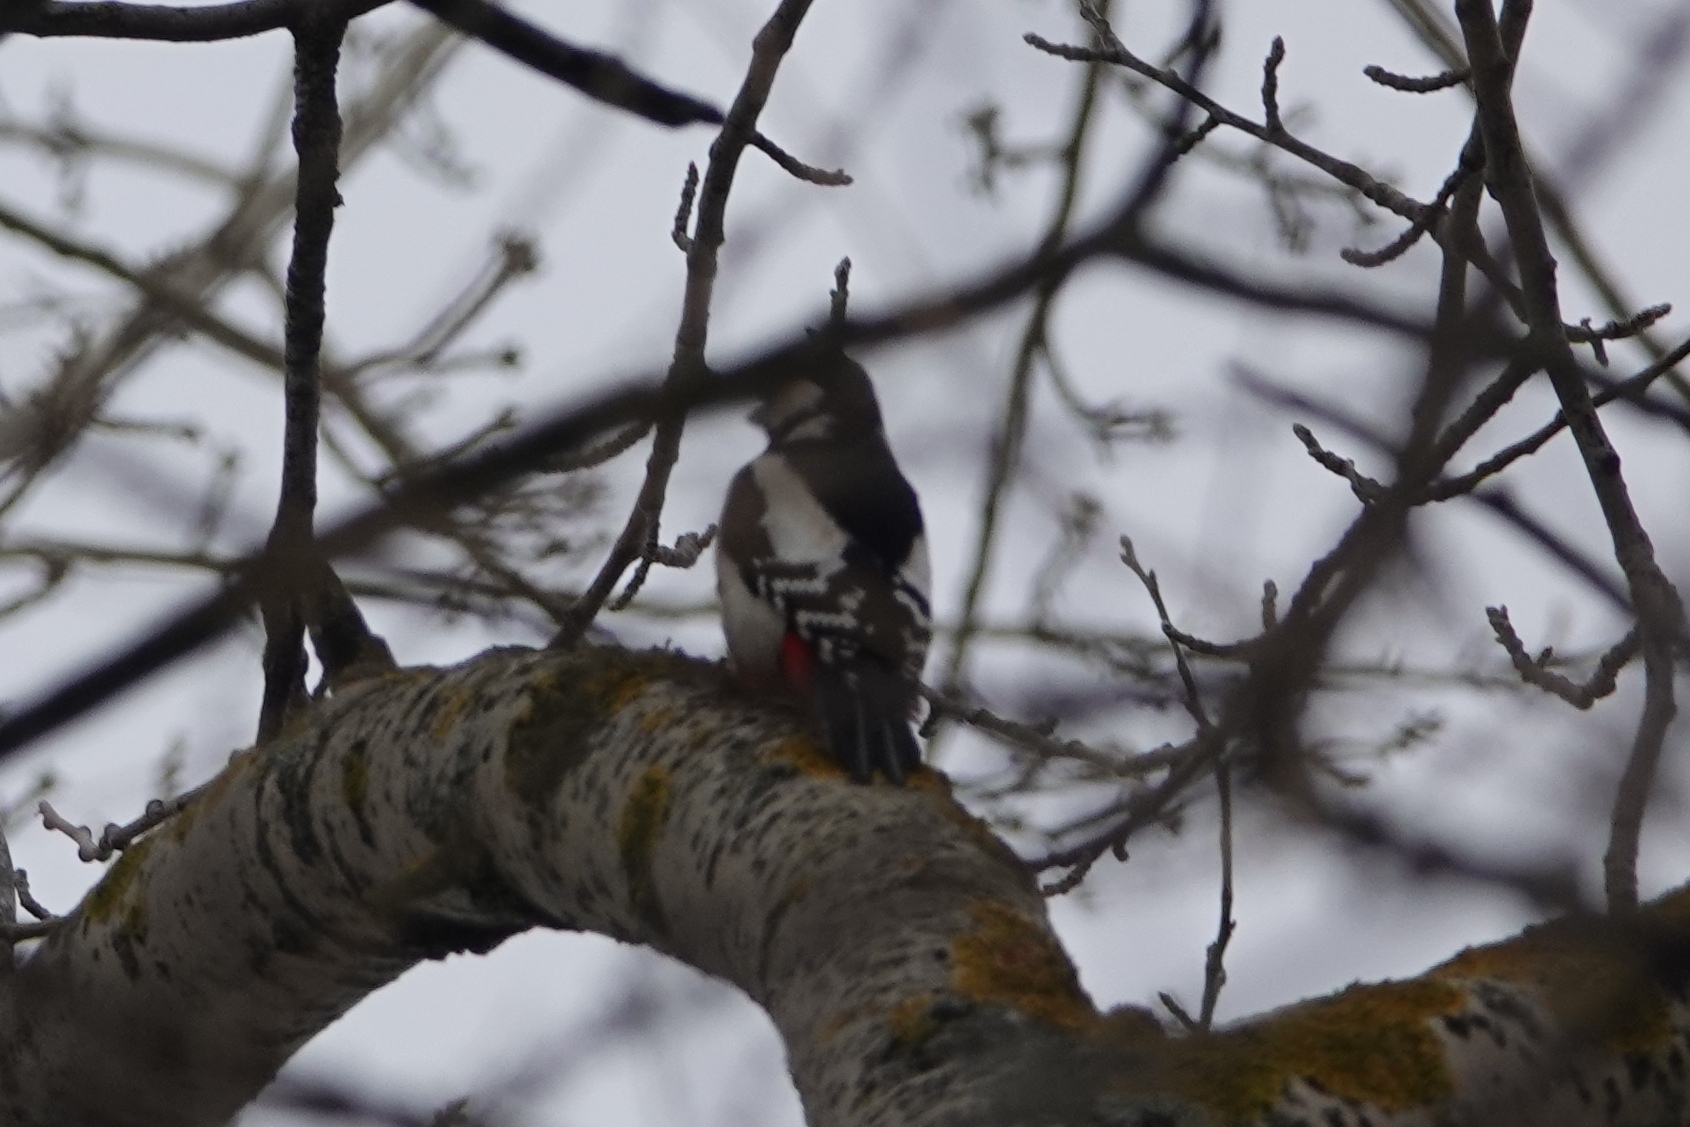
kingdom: Animalia
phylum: Chordata
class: Aves
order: Piciformes
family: Picidae
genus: Dendrocopos
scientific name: Dendrocopos major
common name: Great spotted woodpecker
